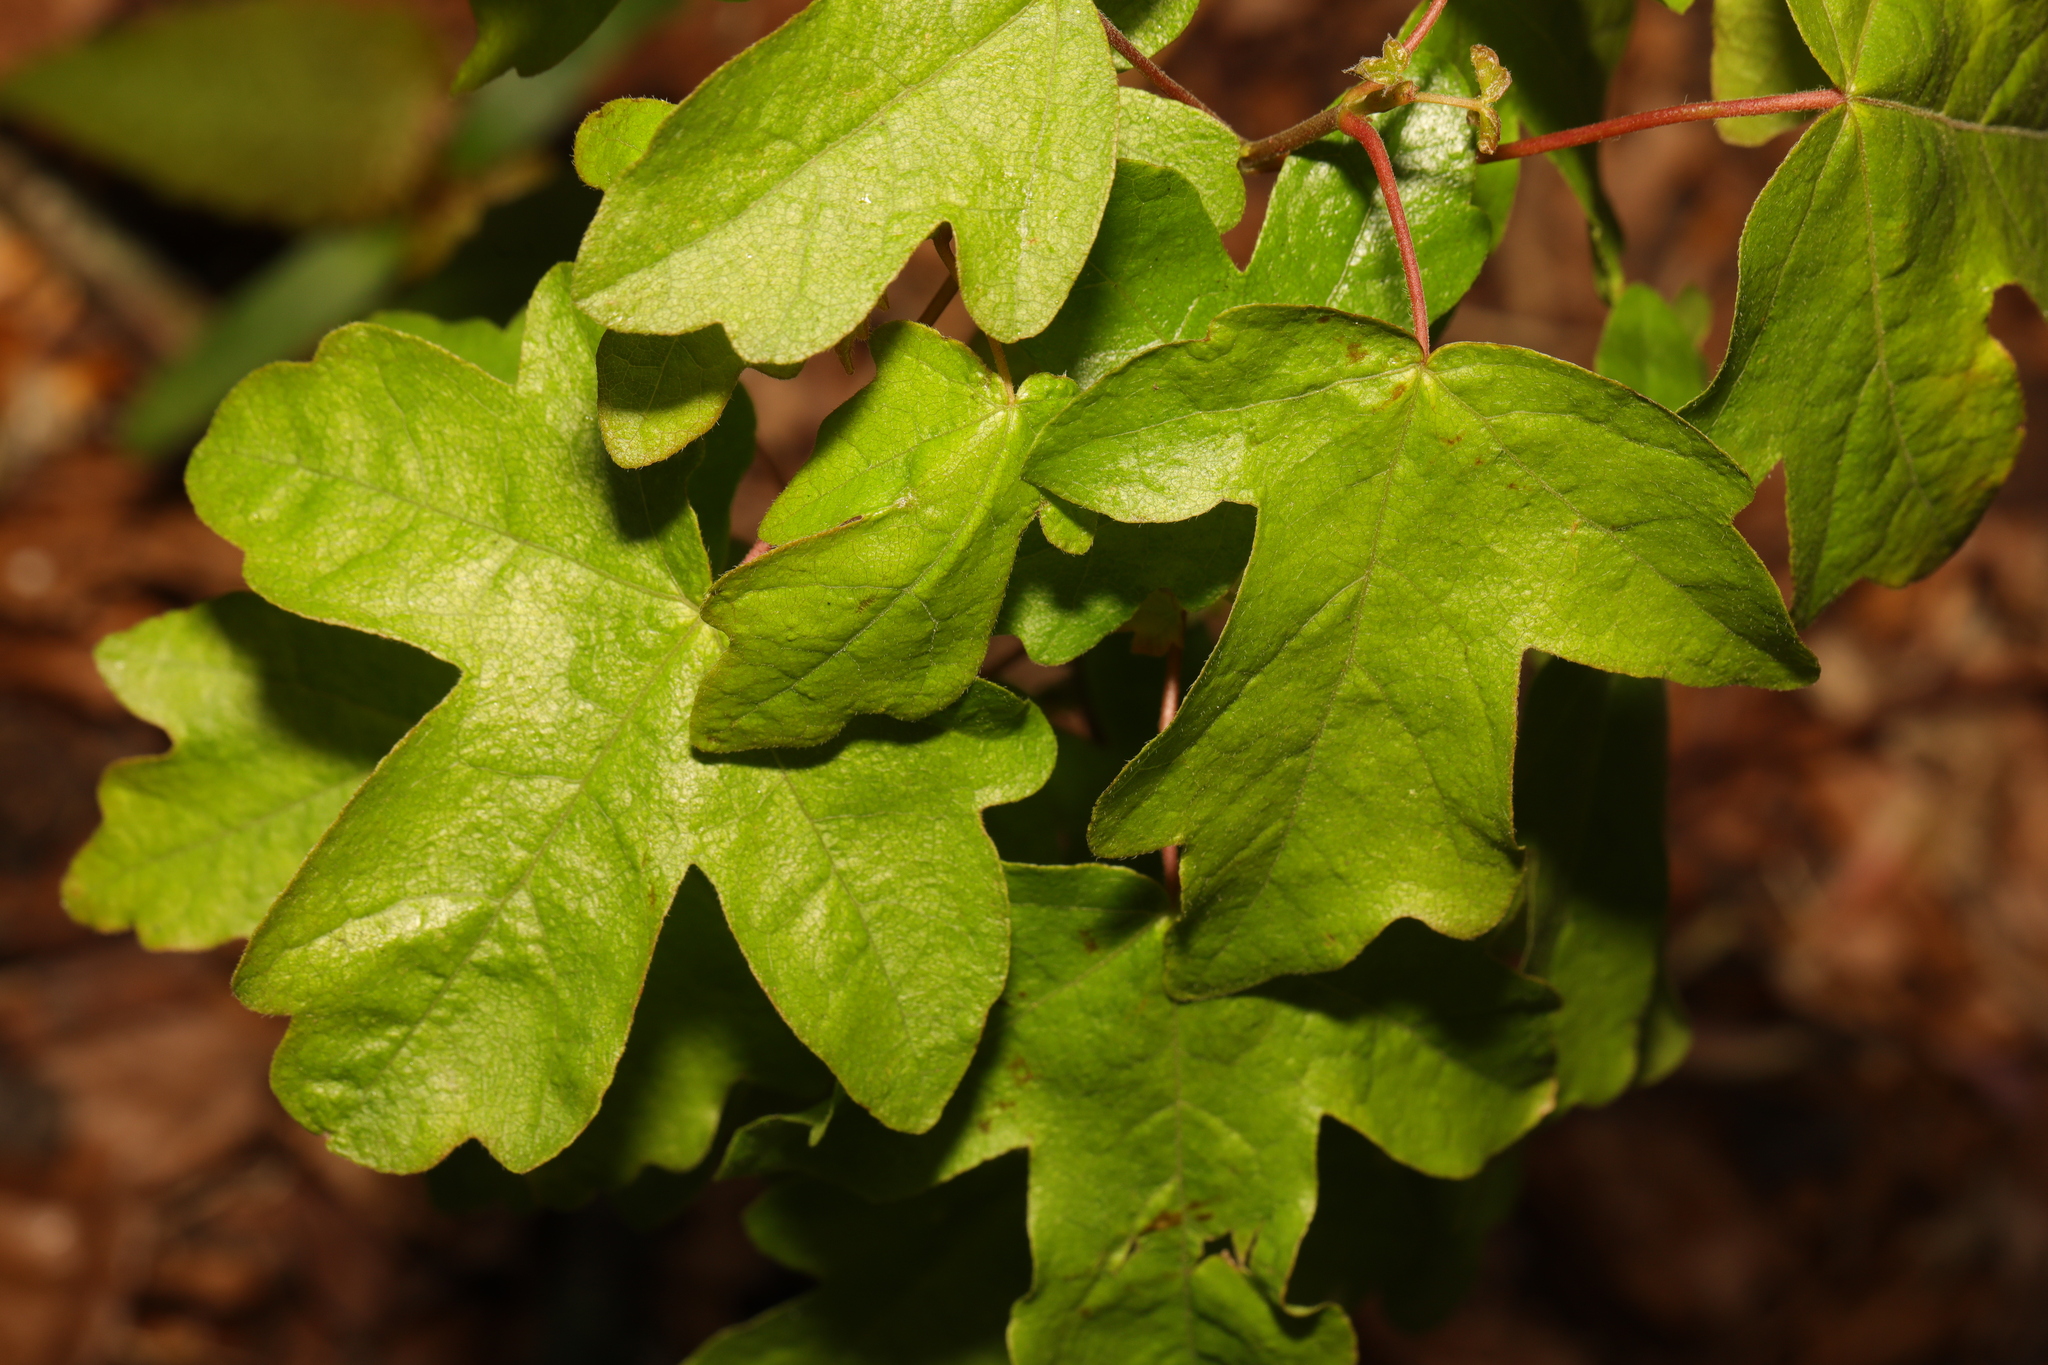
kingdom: Plantae
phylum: Tracheophyta
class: Magnoliopsida
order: Sapindales
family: Sapindaceae
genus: Acer
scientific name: Acer campestre
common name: Field maple
